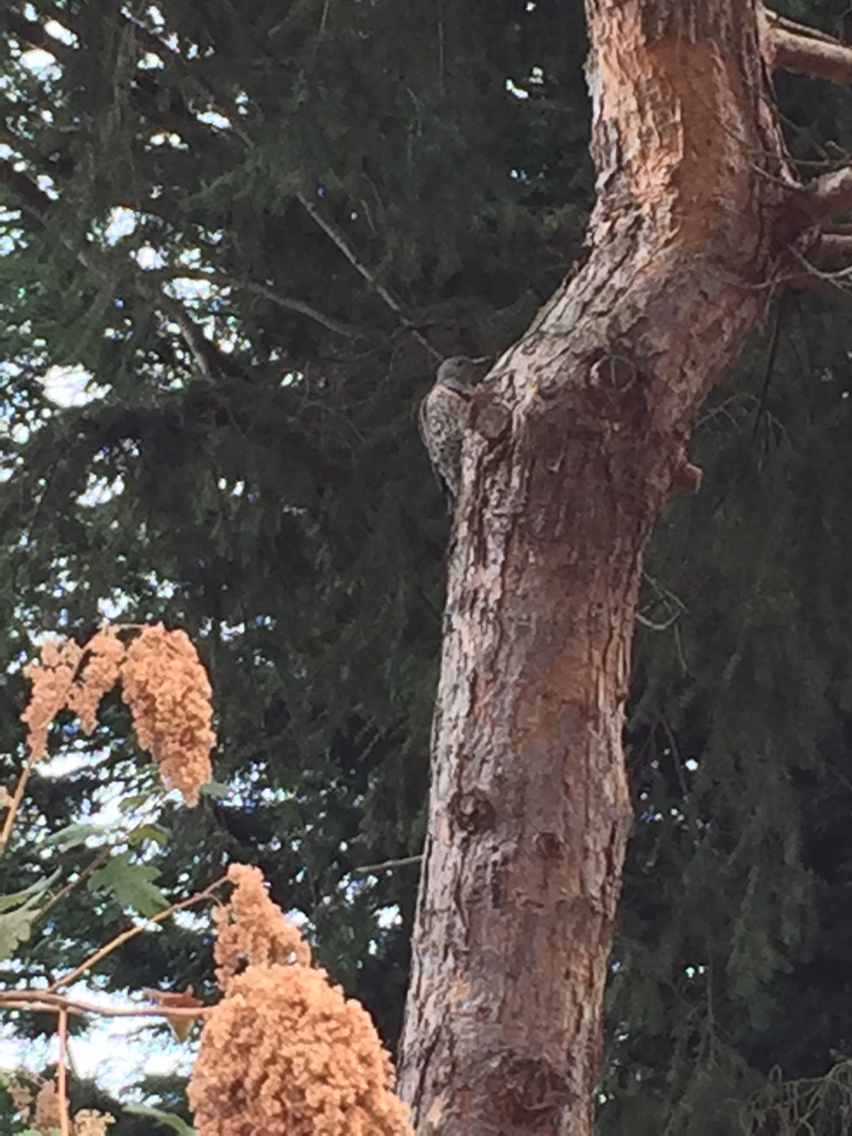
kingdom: Animalia
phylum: Chordata
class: Aves
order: Piciformes
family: Picidae
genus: Colaptes
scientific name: Colaptes auratus
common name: Northern flicker
